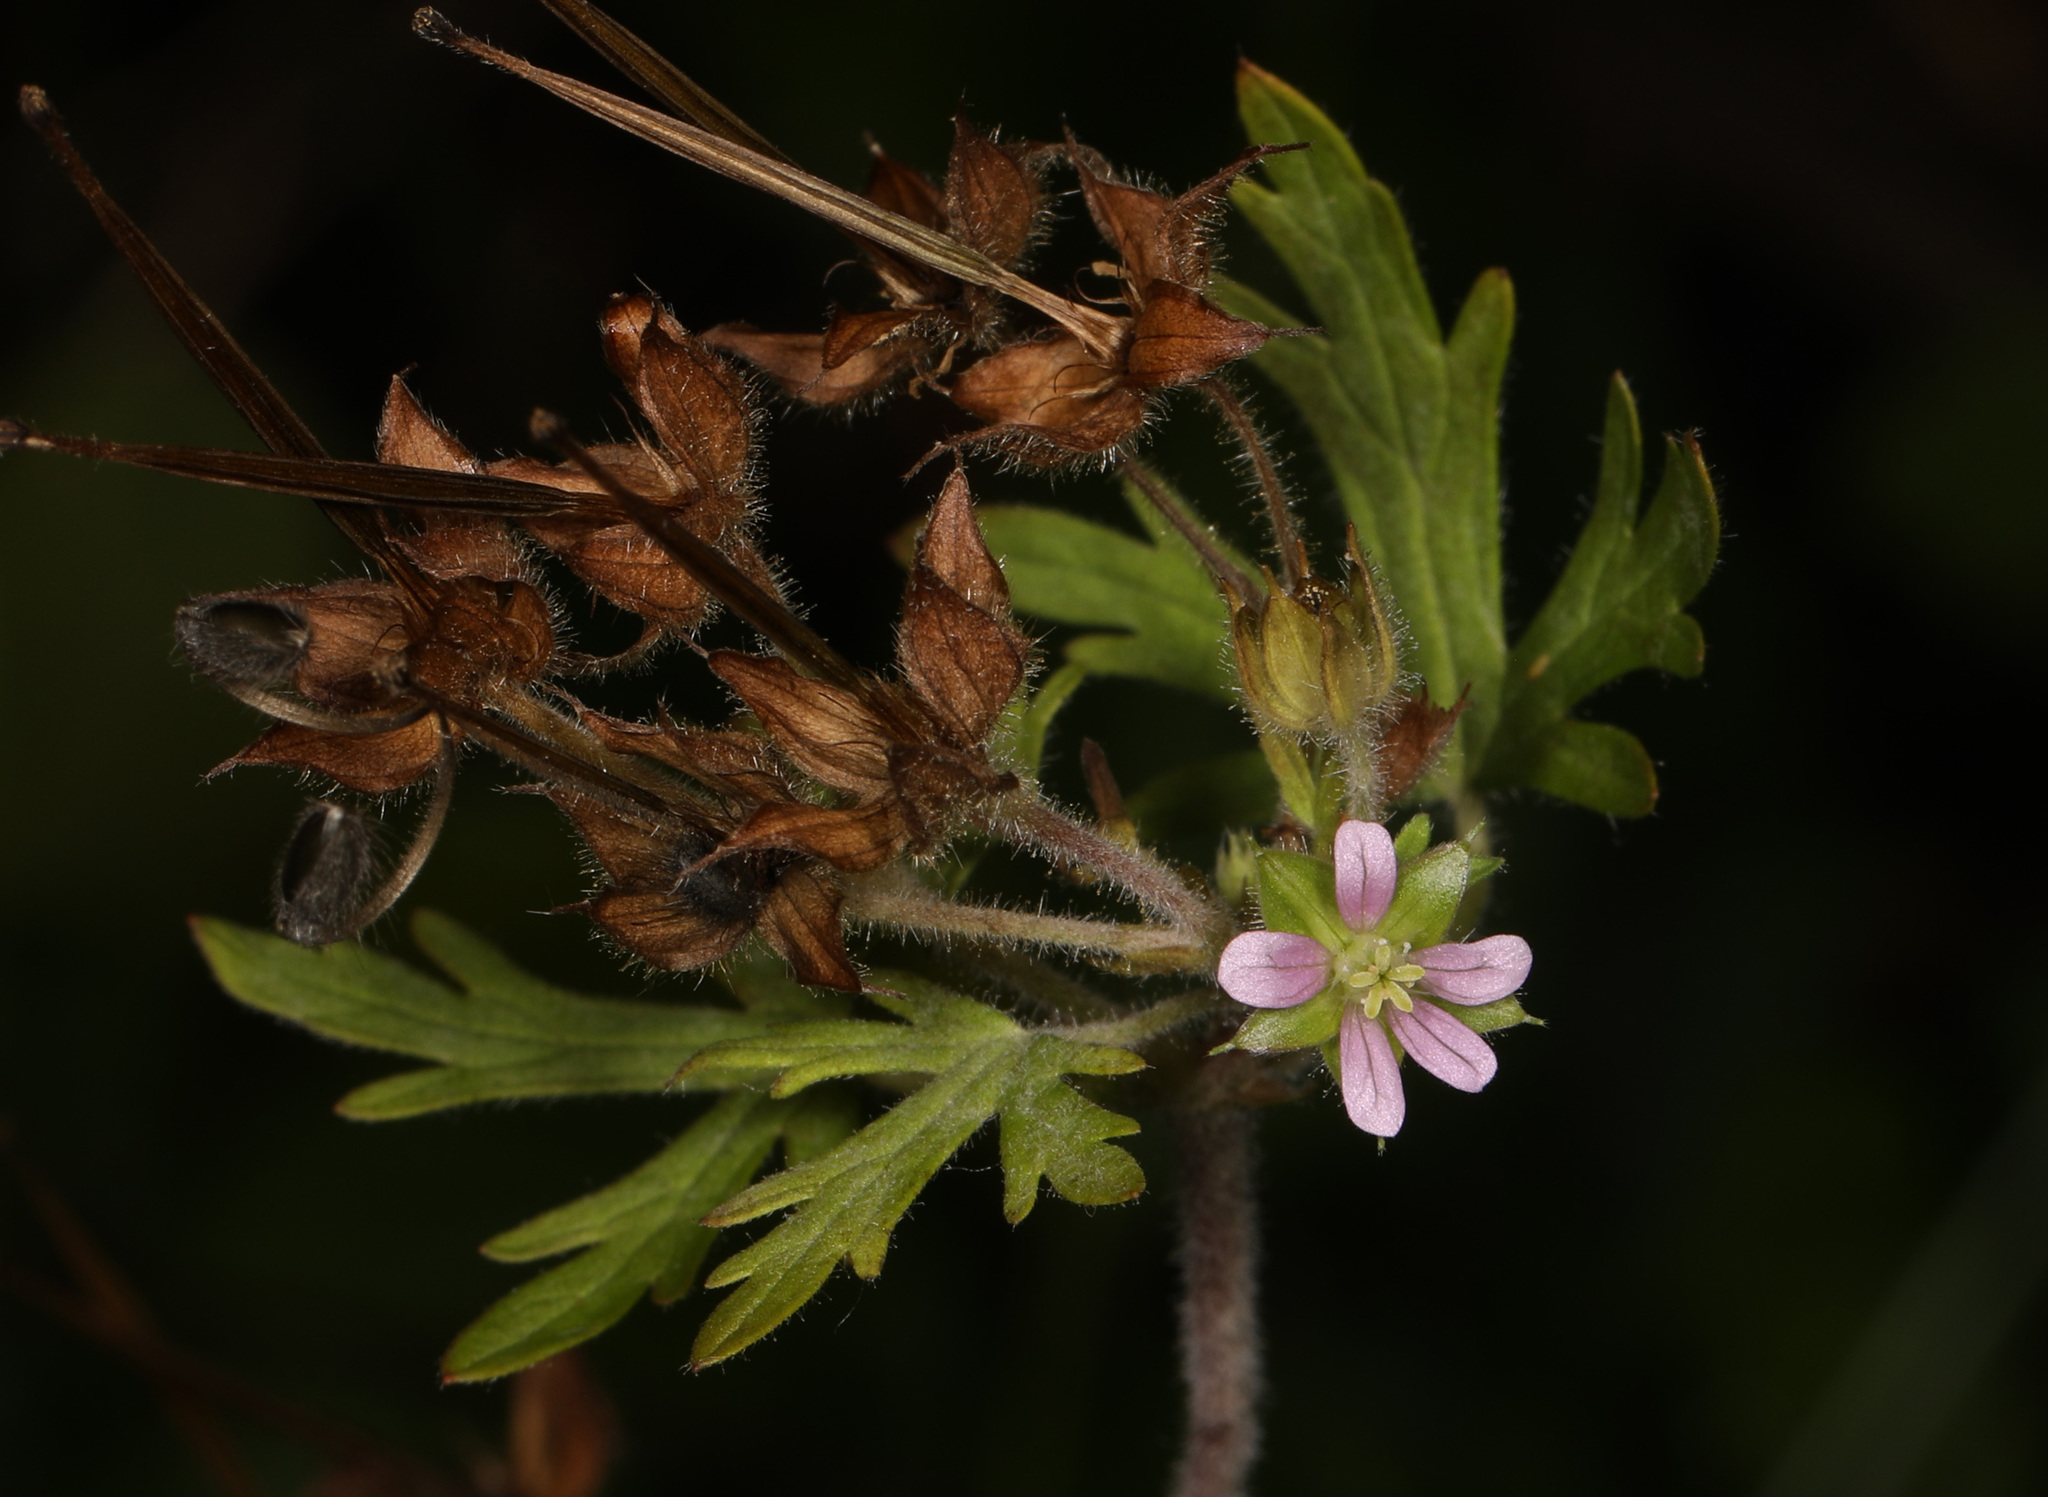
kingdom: Plantae
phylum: Tracheophyta
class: Magnoliopsida
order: Geraniales
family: Geraniaceae
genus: Geranium
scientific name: Geranium carolinianum
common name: Carolina crane's-bill
